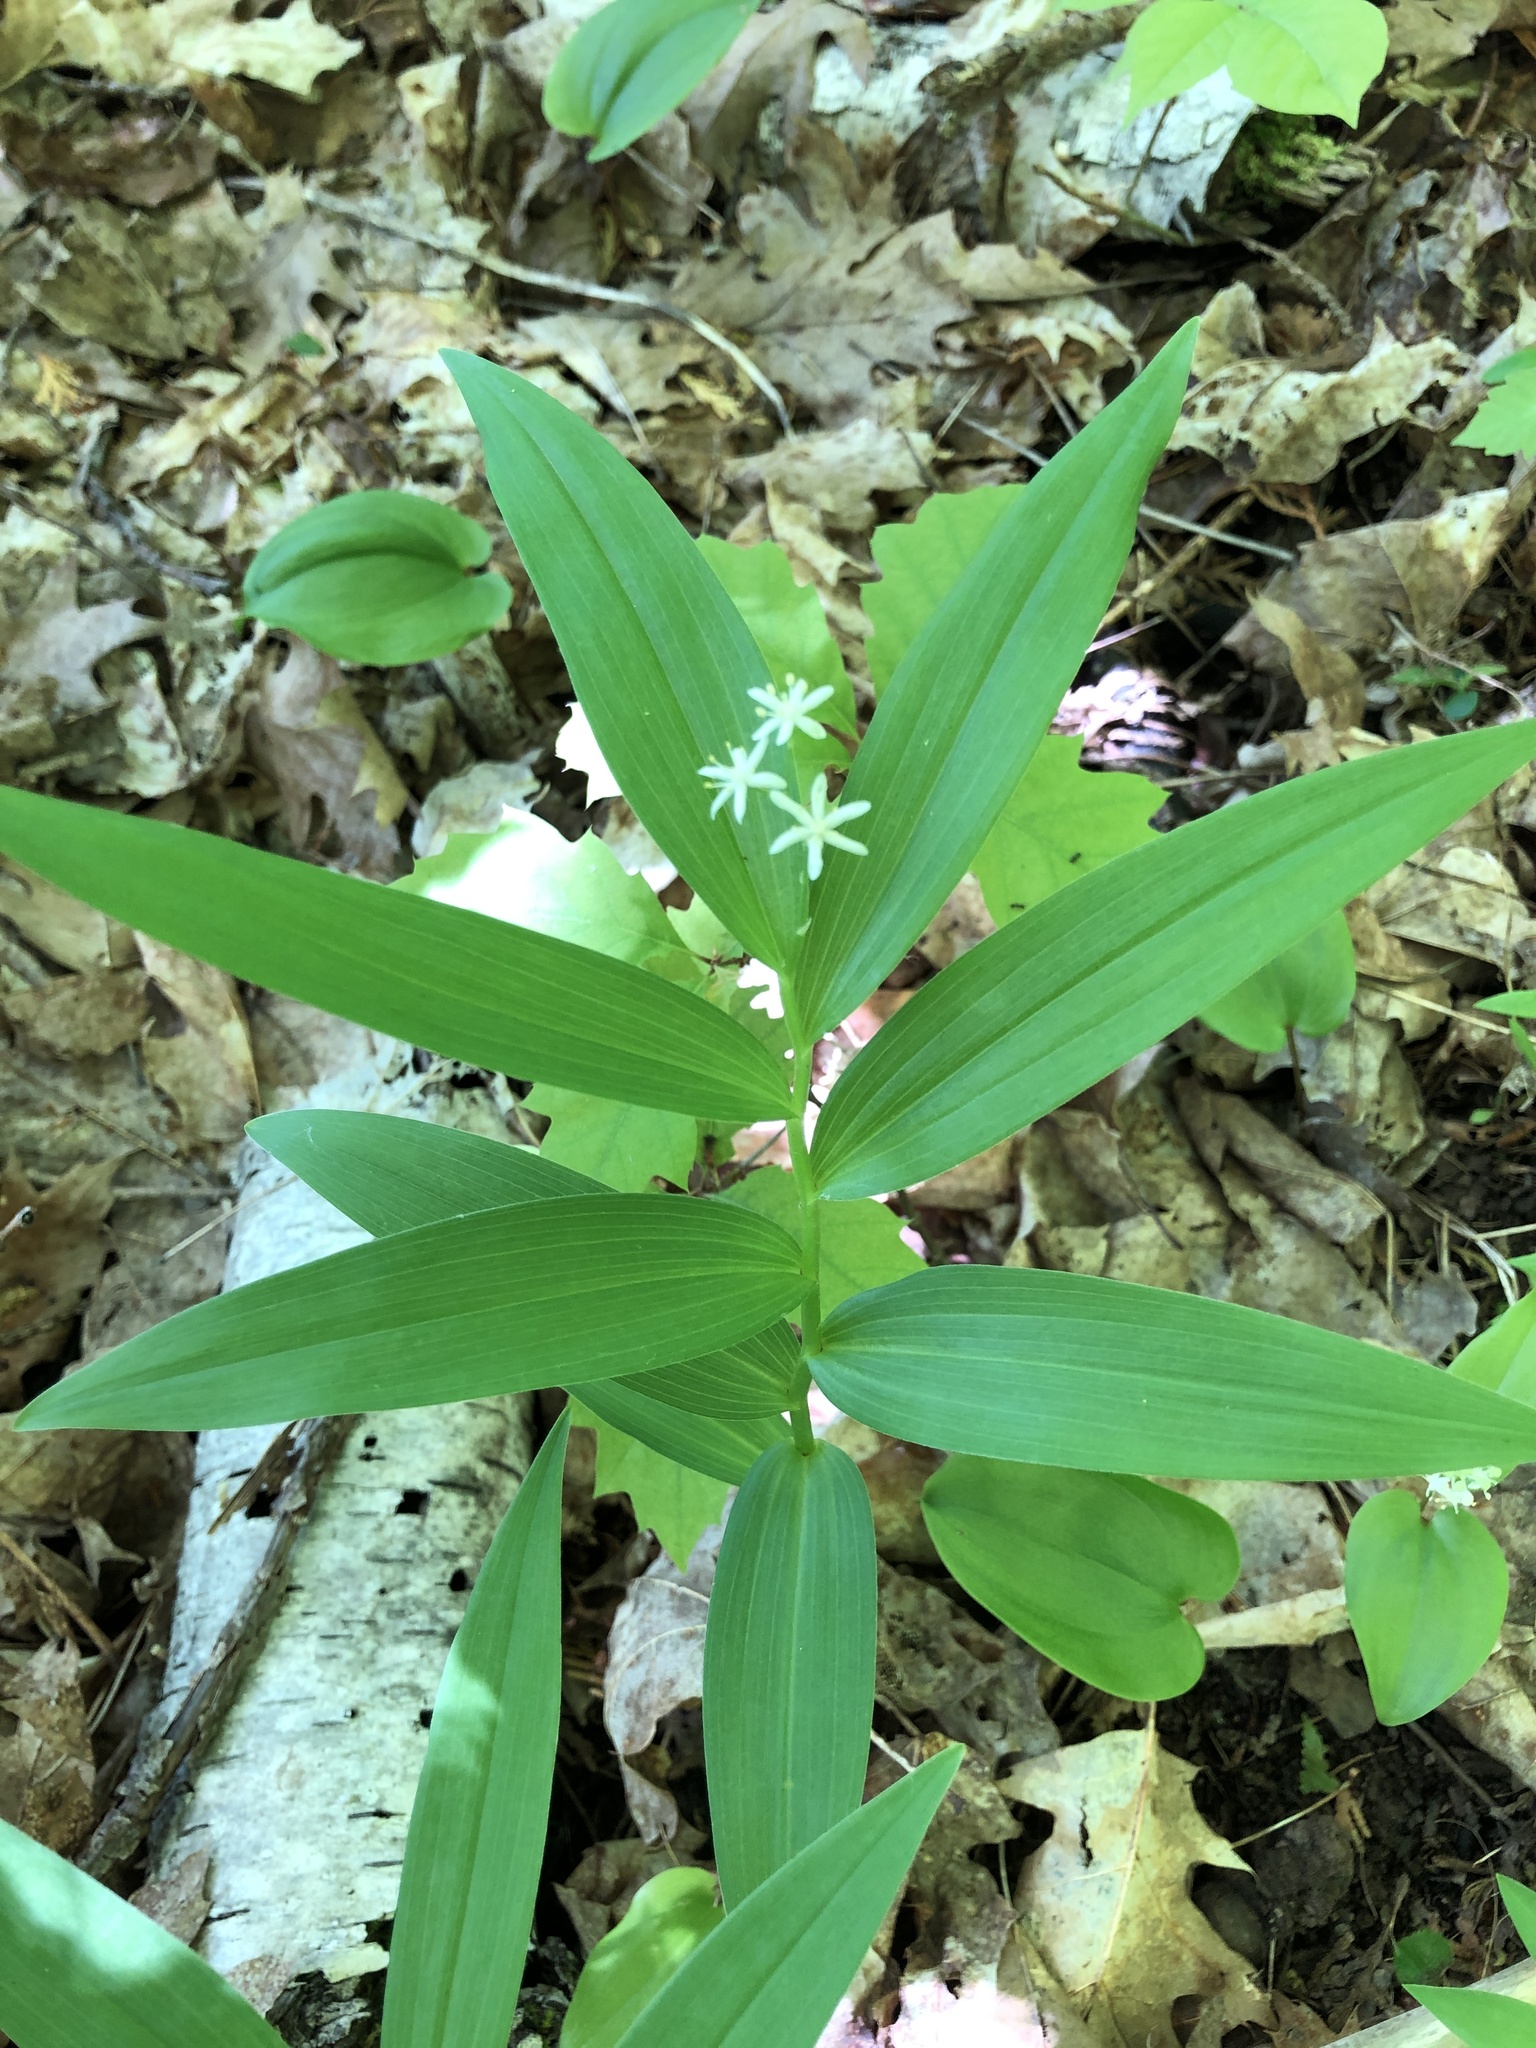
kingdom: Plantae
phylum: Tracheophyta
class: Liliopsida
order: Asparagales
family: Asparagaceae
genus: Maianthemum
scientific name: Maianthemum stellatum
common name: Little false solomon's seal
